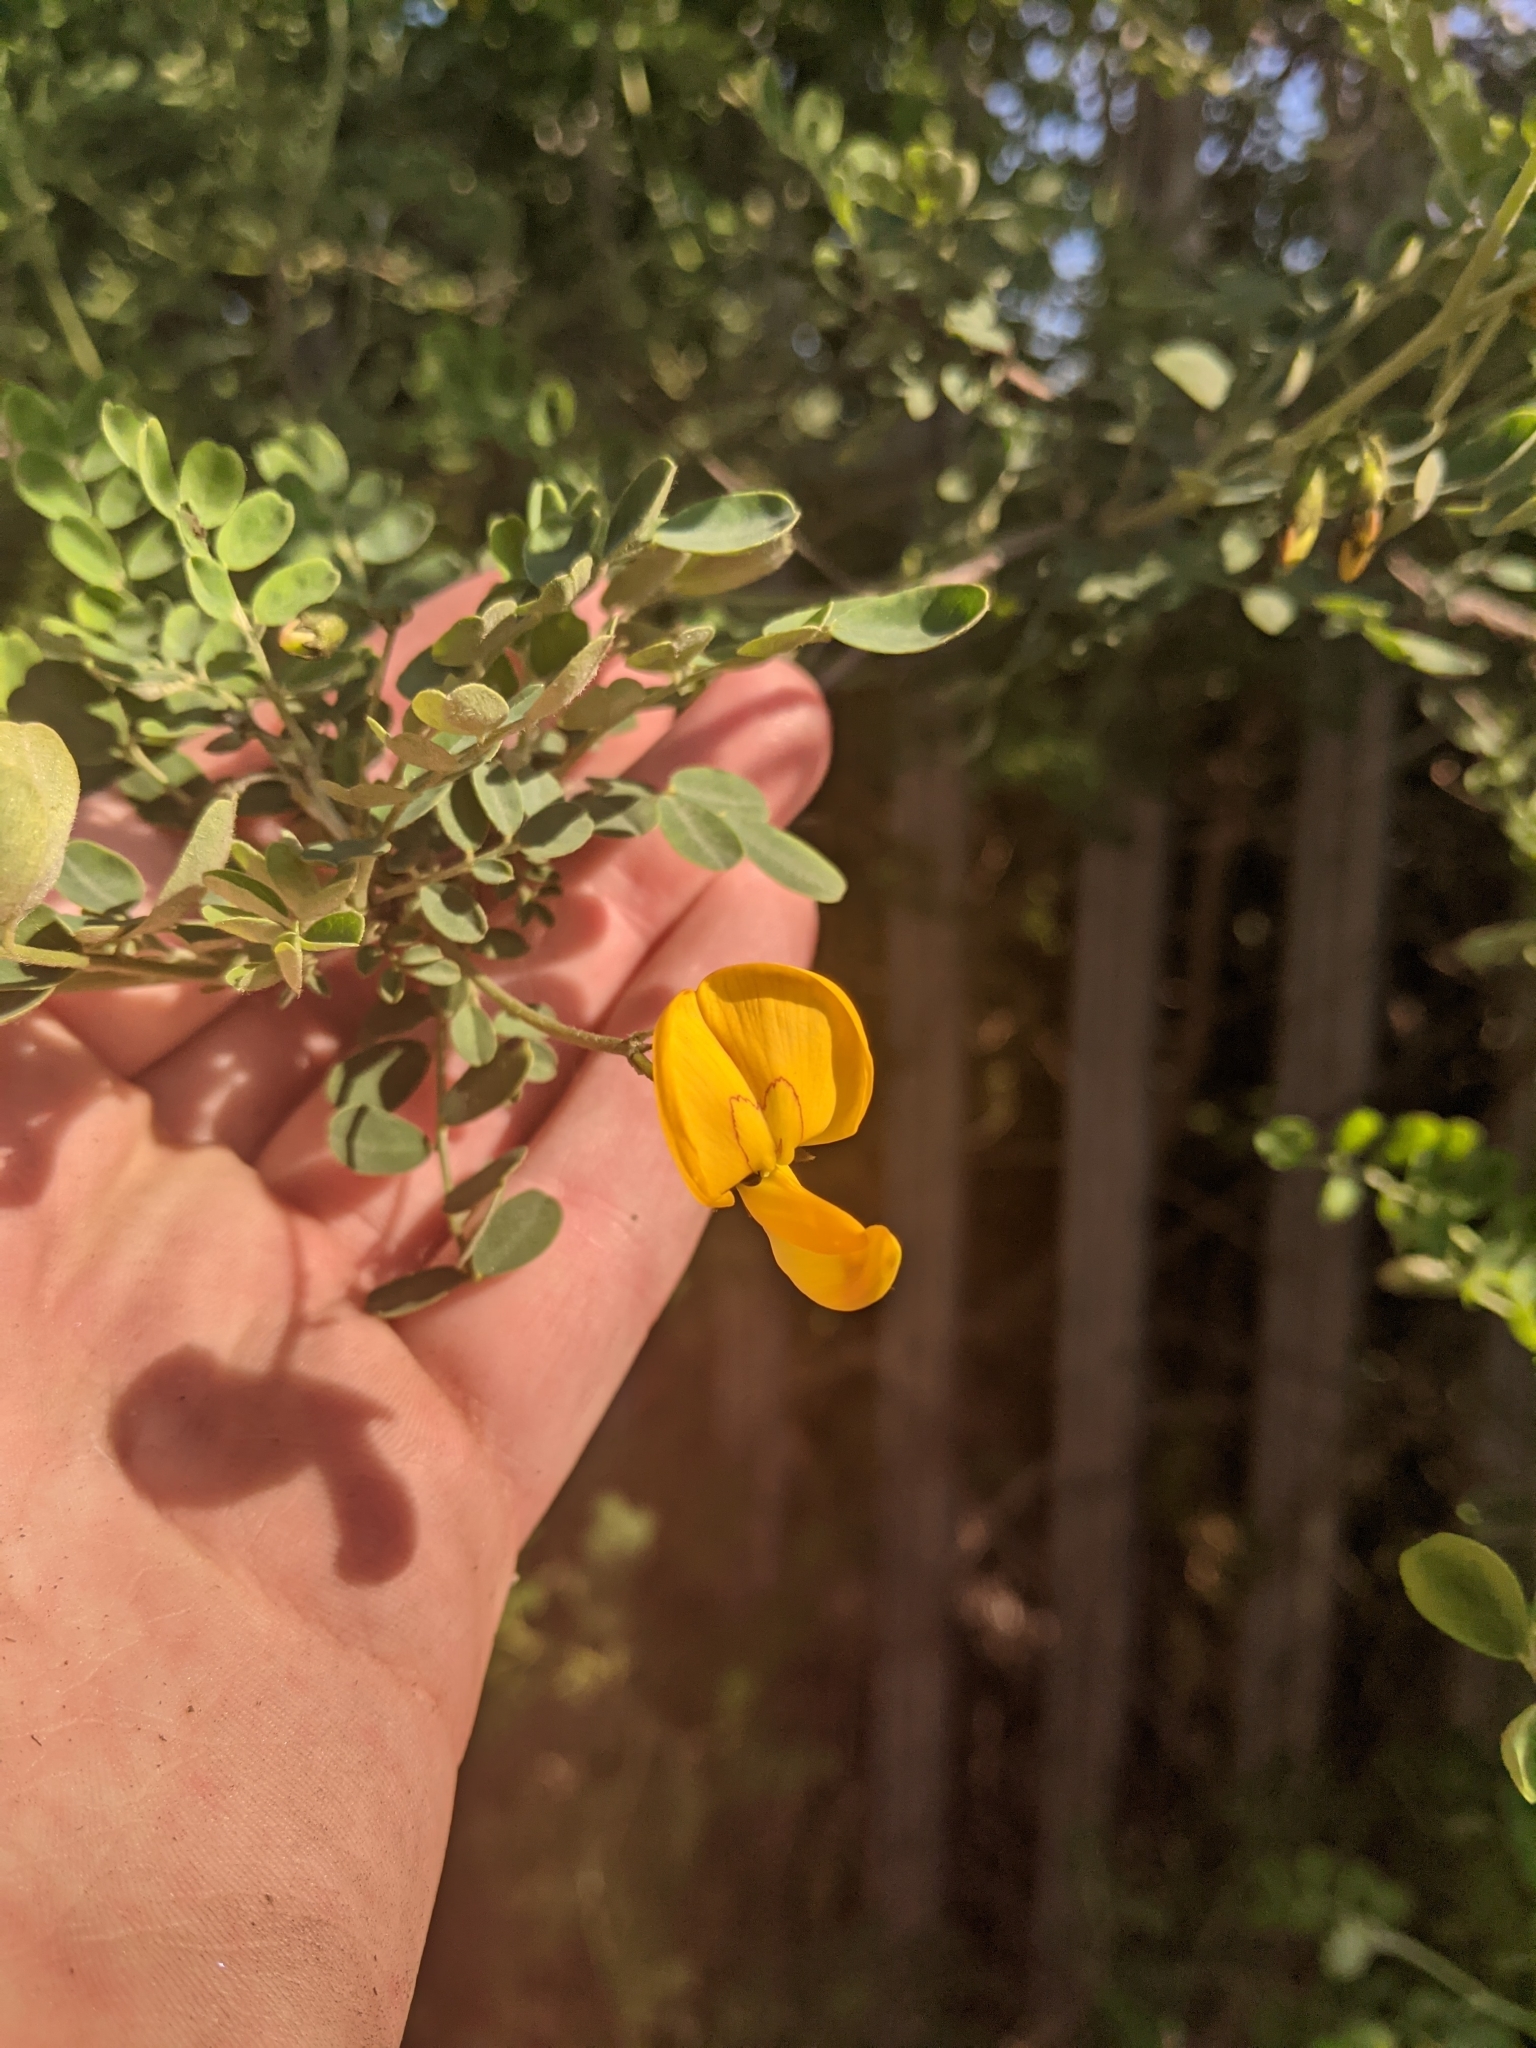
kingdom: Plantae
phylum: Tracheophyta
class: Magnoliopsida
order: Fabales
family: Fabaceae
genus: Colutea
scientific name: Colutea arborescens
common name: Bladder-senna
